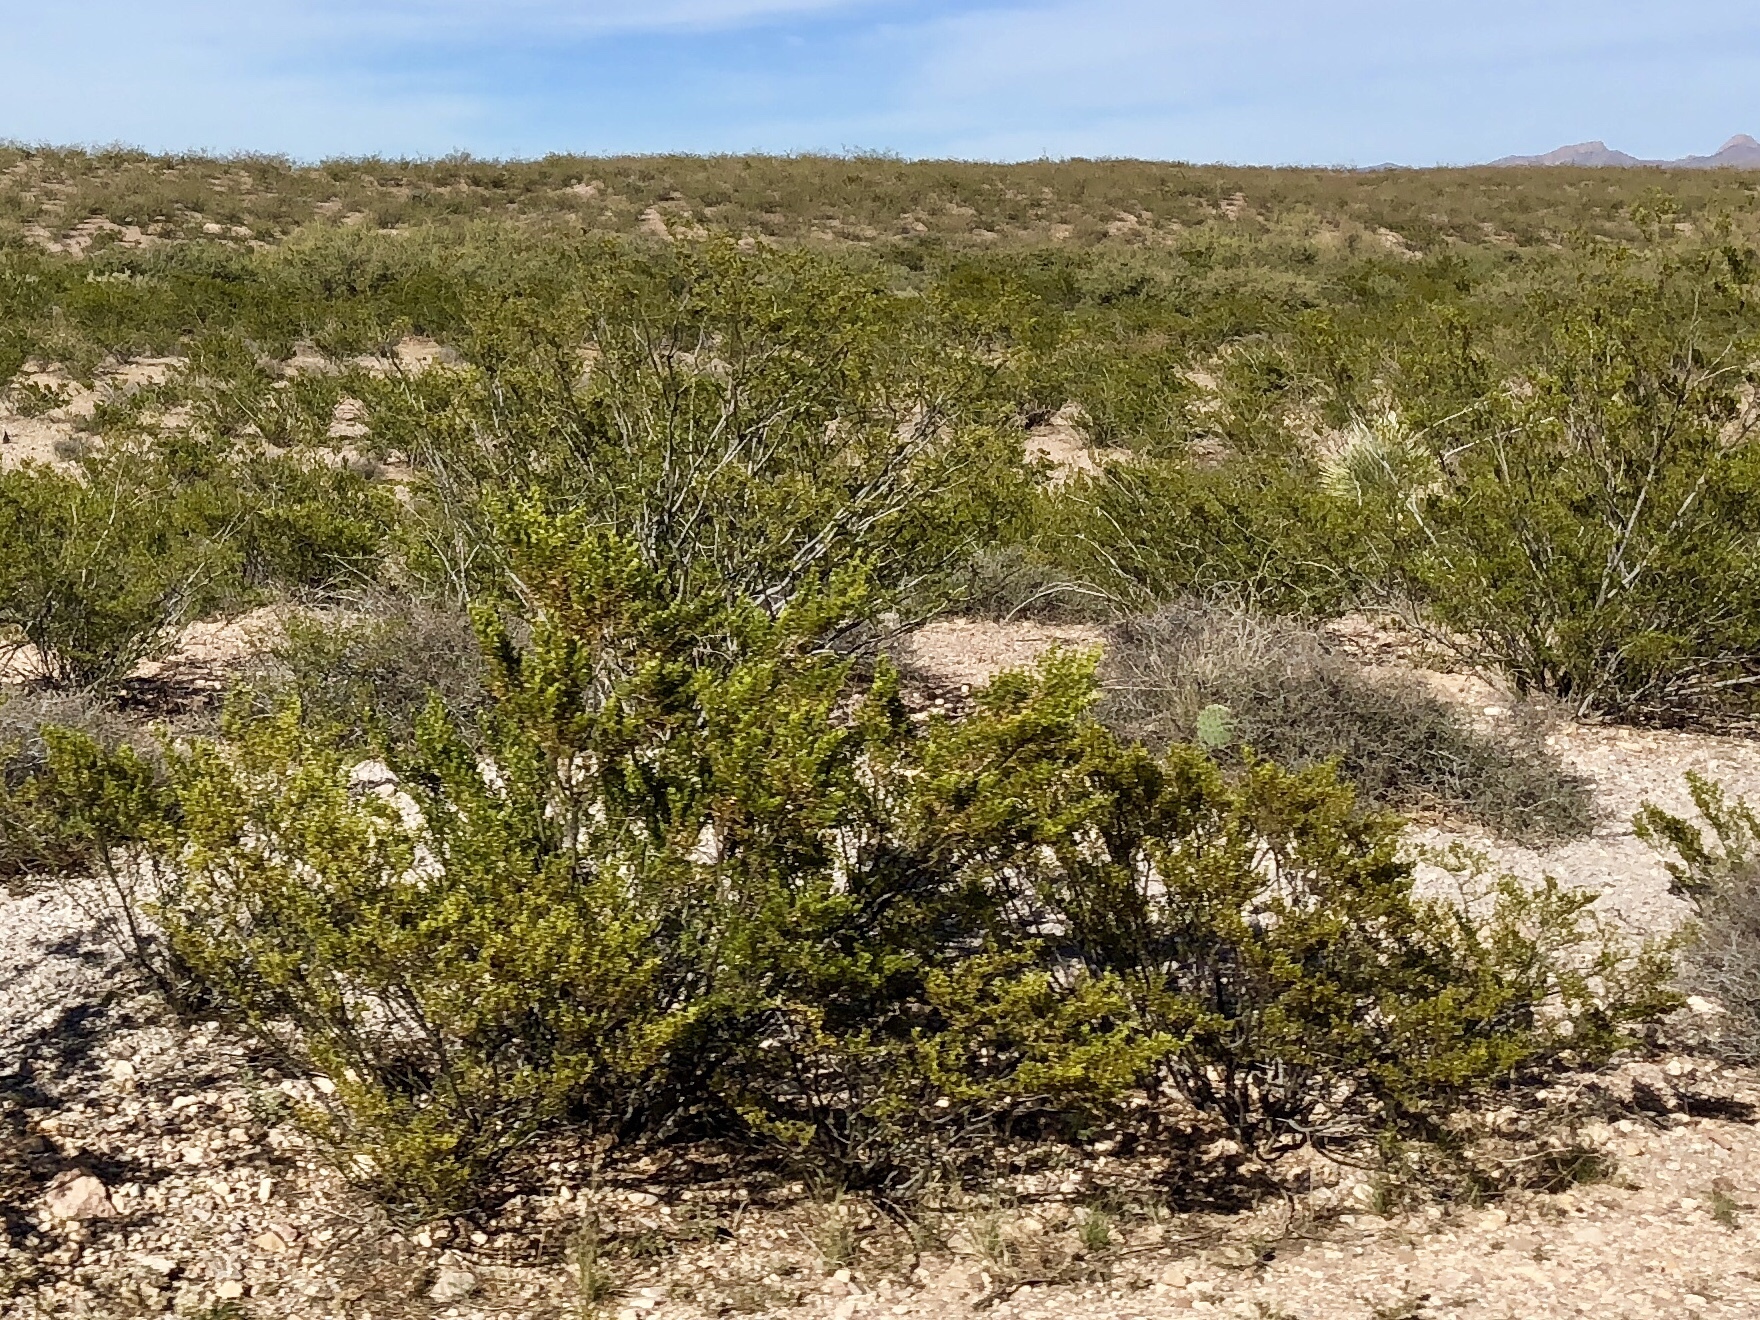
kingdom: Plantae
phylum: Tracheophyta
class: Magnoliopsida
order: Zygophyllales
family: Zygophyllaceae
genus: Larrea
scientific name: Larrea tridentata
